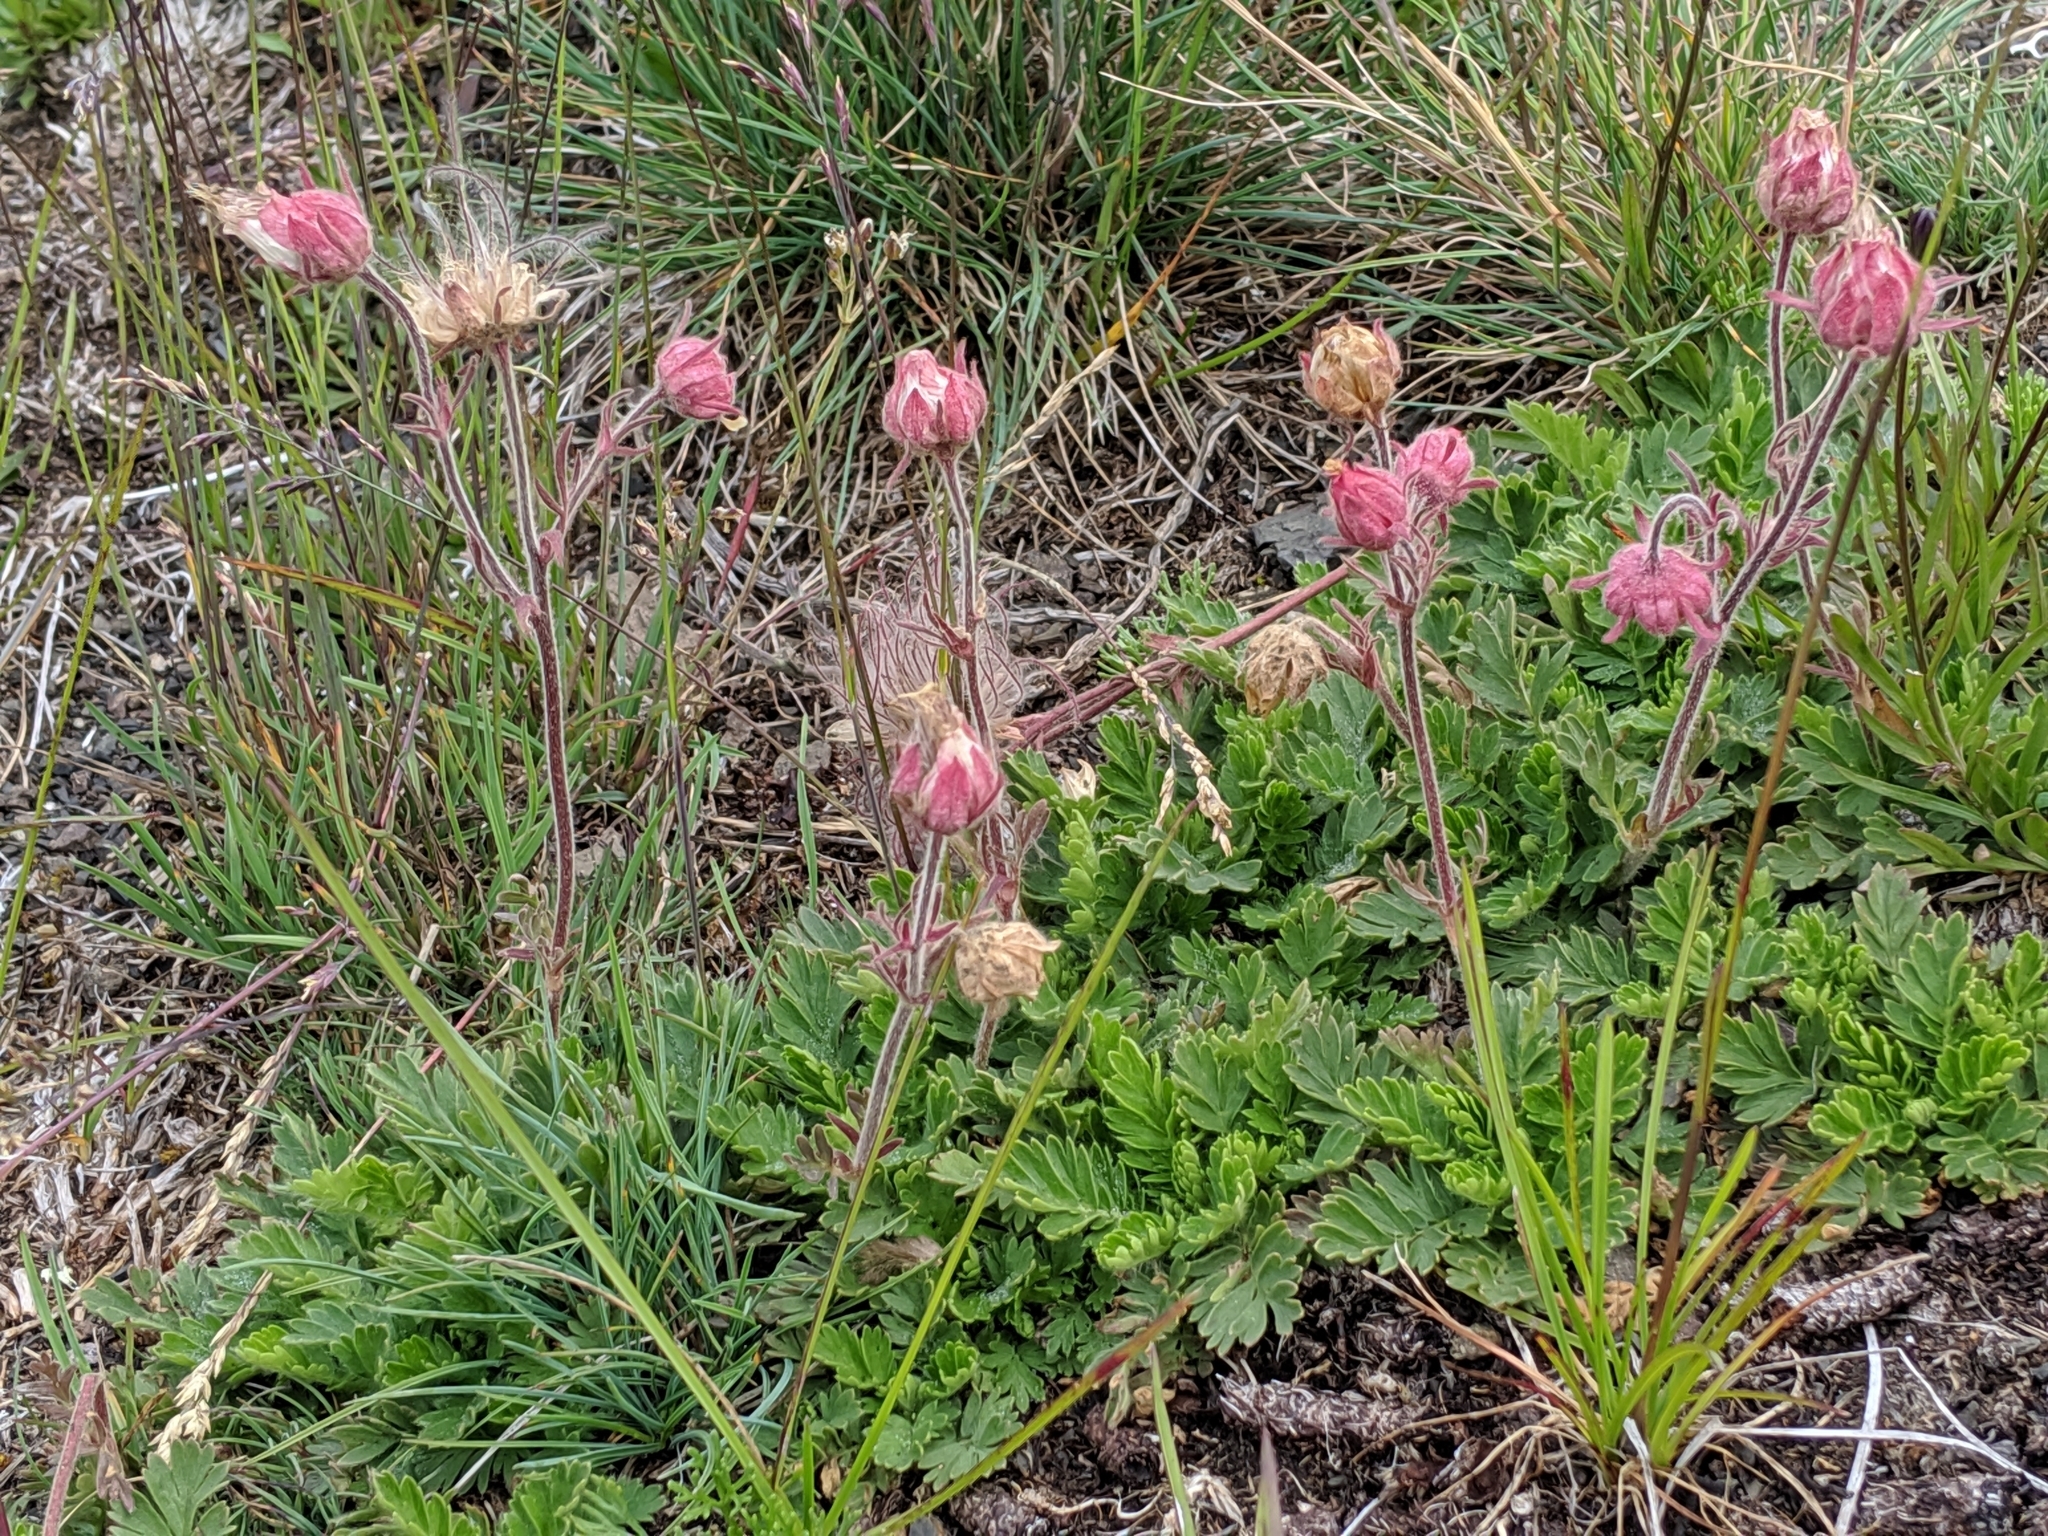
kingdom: Plantae
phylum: Tracheophyta
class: Magnoliopsida
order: Rosales
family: Rosaceae
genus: Geum
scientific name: Geum triflorum
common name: Old man's whiskers
